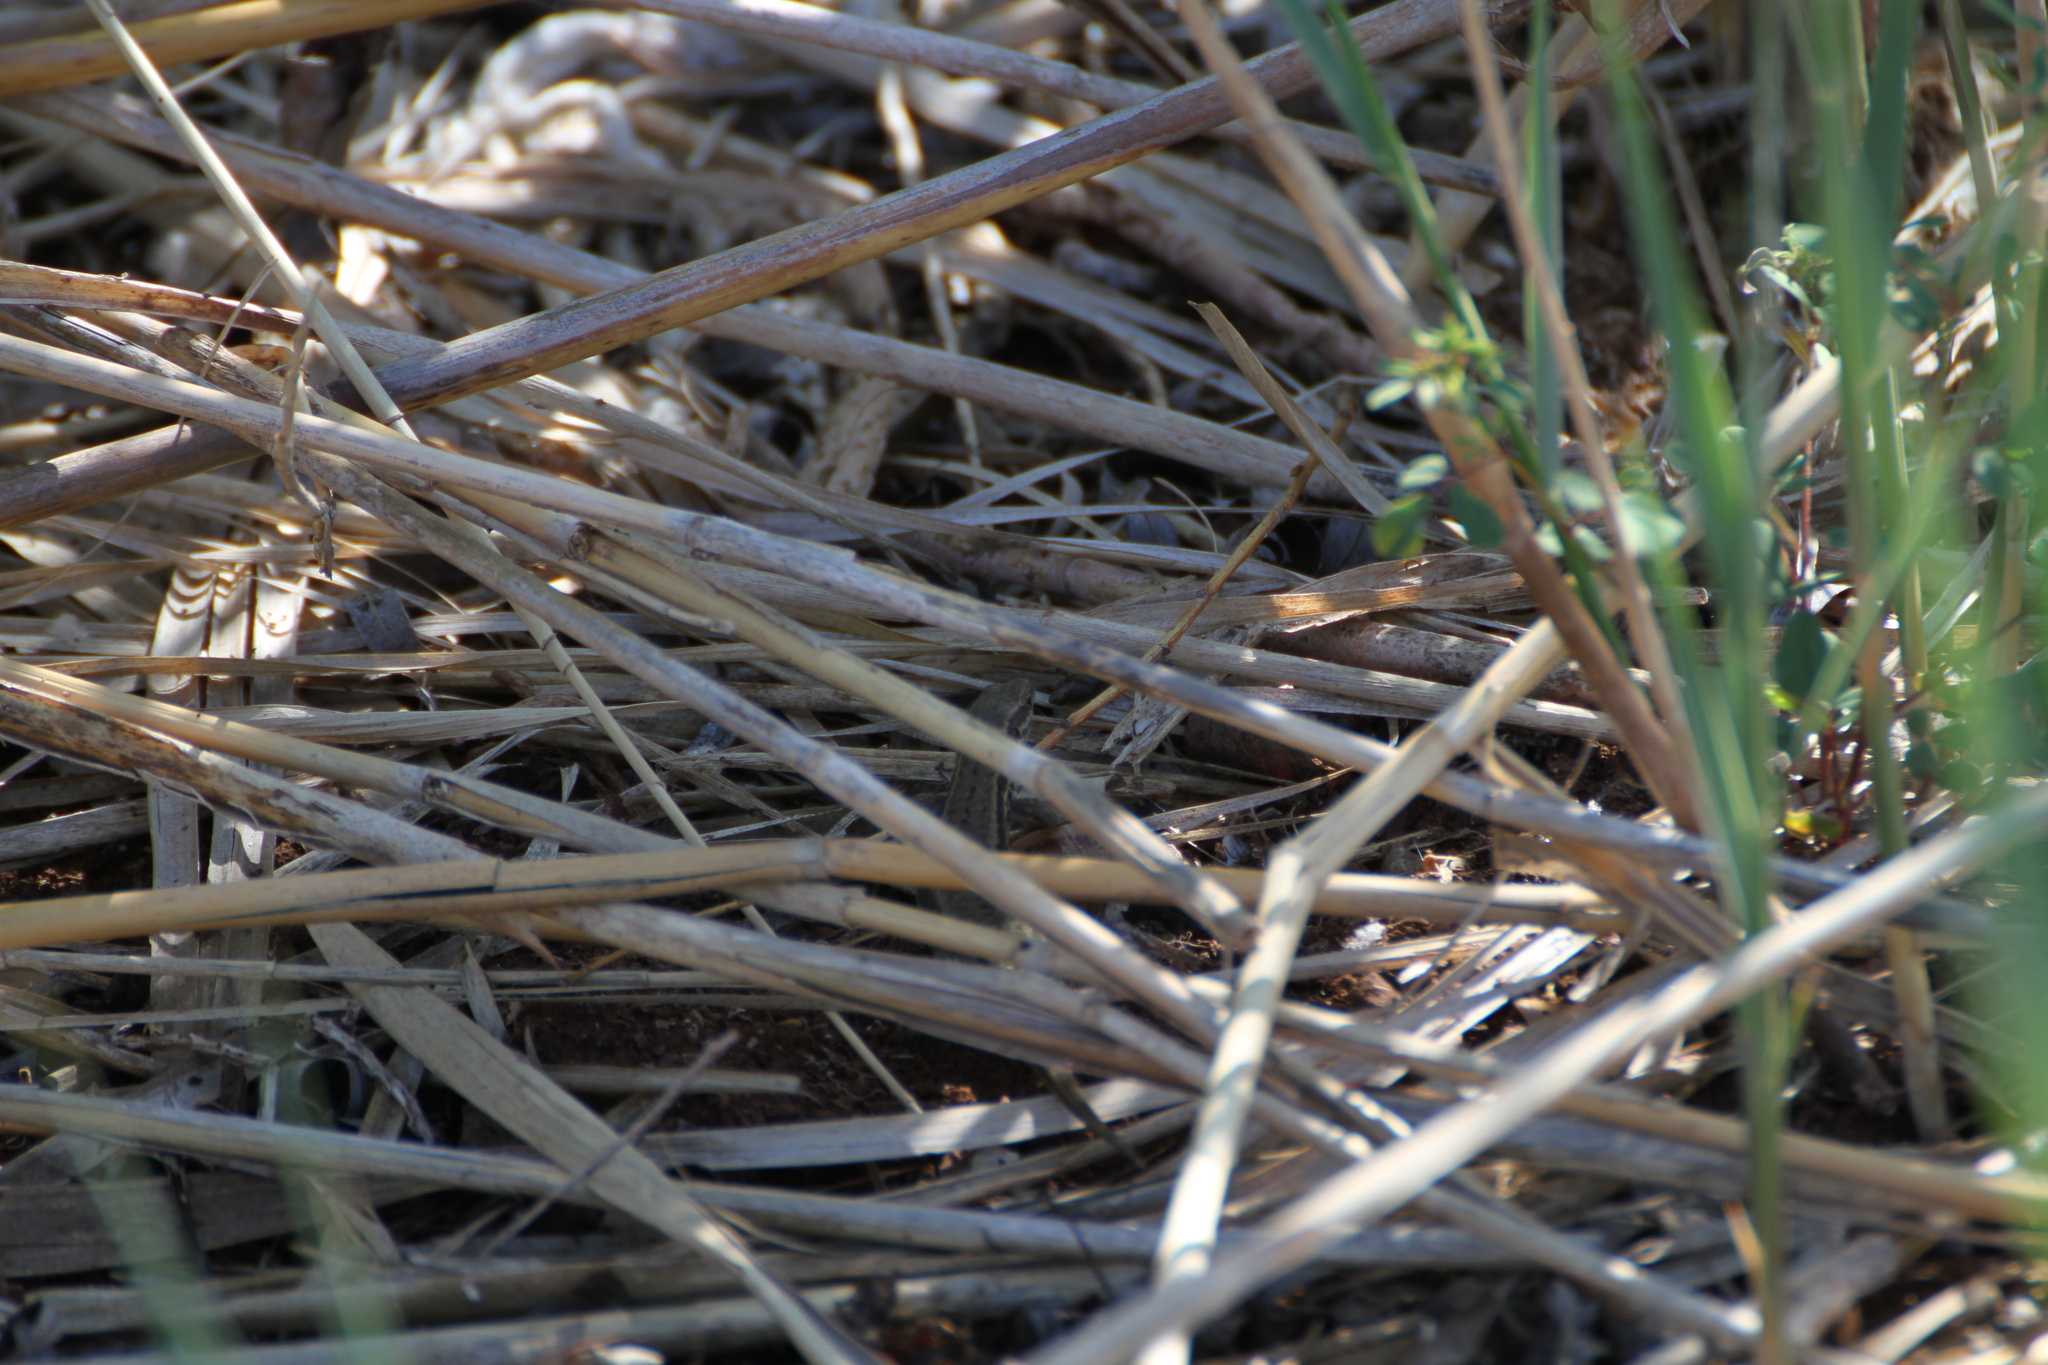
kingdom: Animalia
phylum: Chordata
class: Squamata
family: Lacertidae
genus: Podarcis
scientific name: Podarcis muralis
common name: Common wall lizard
